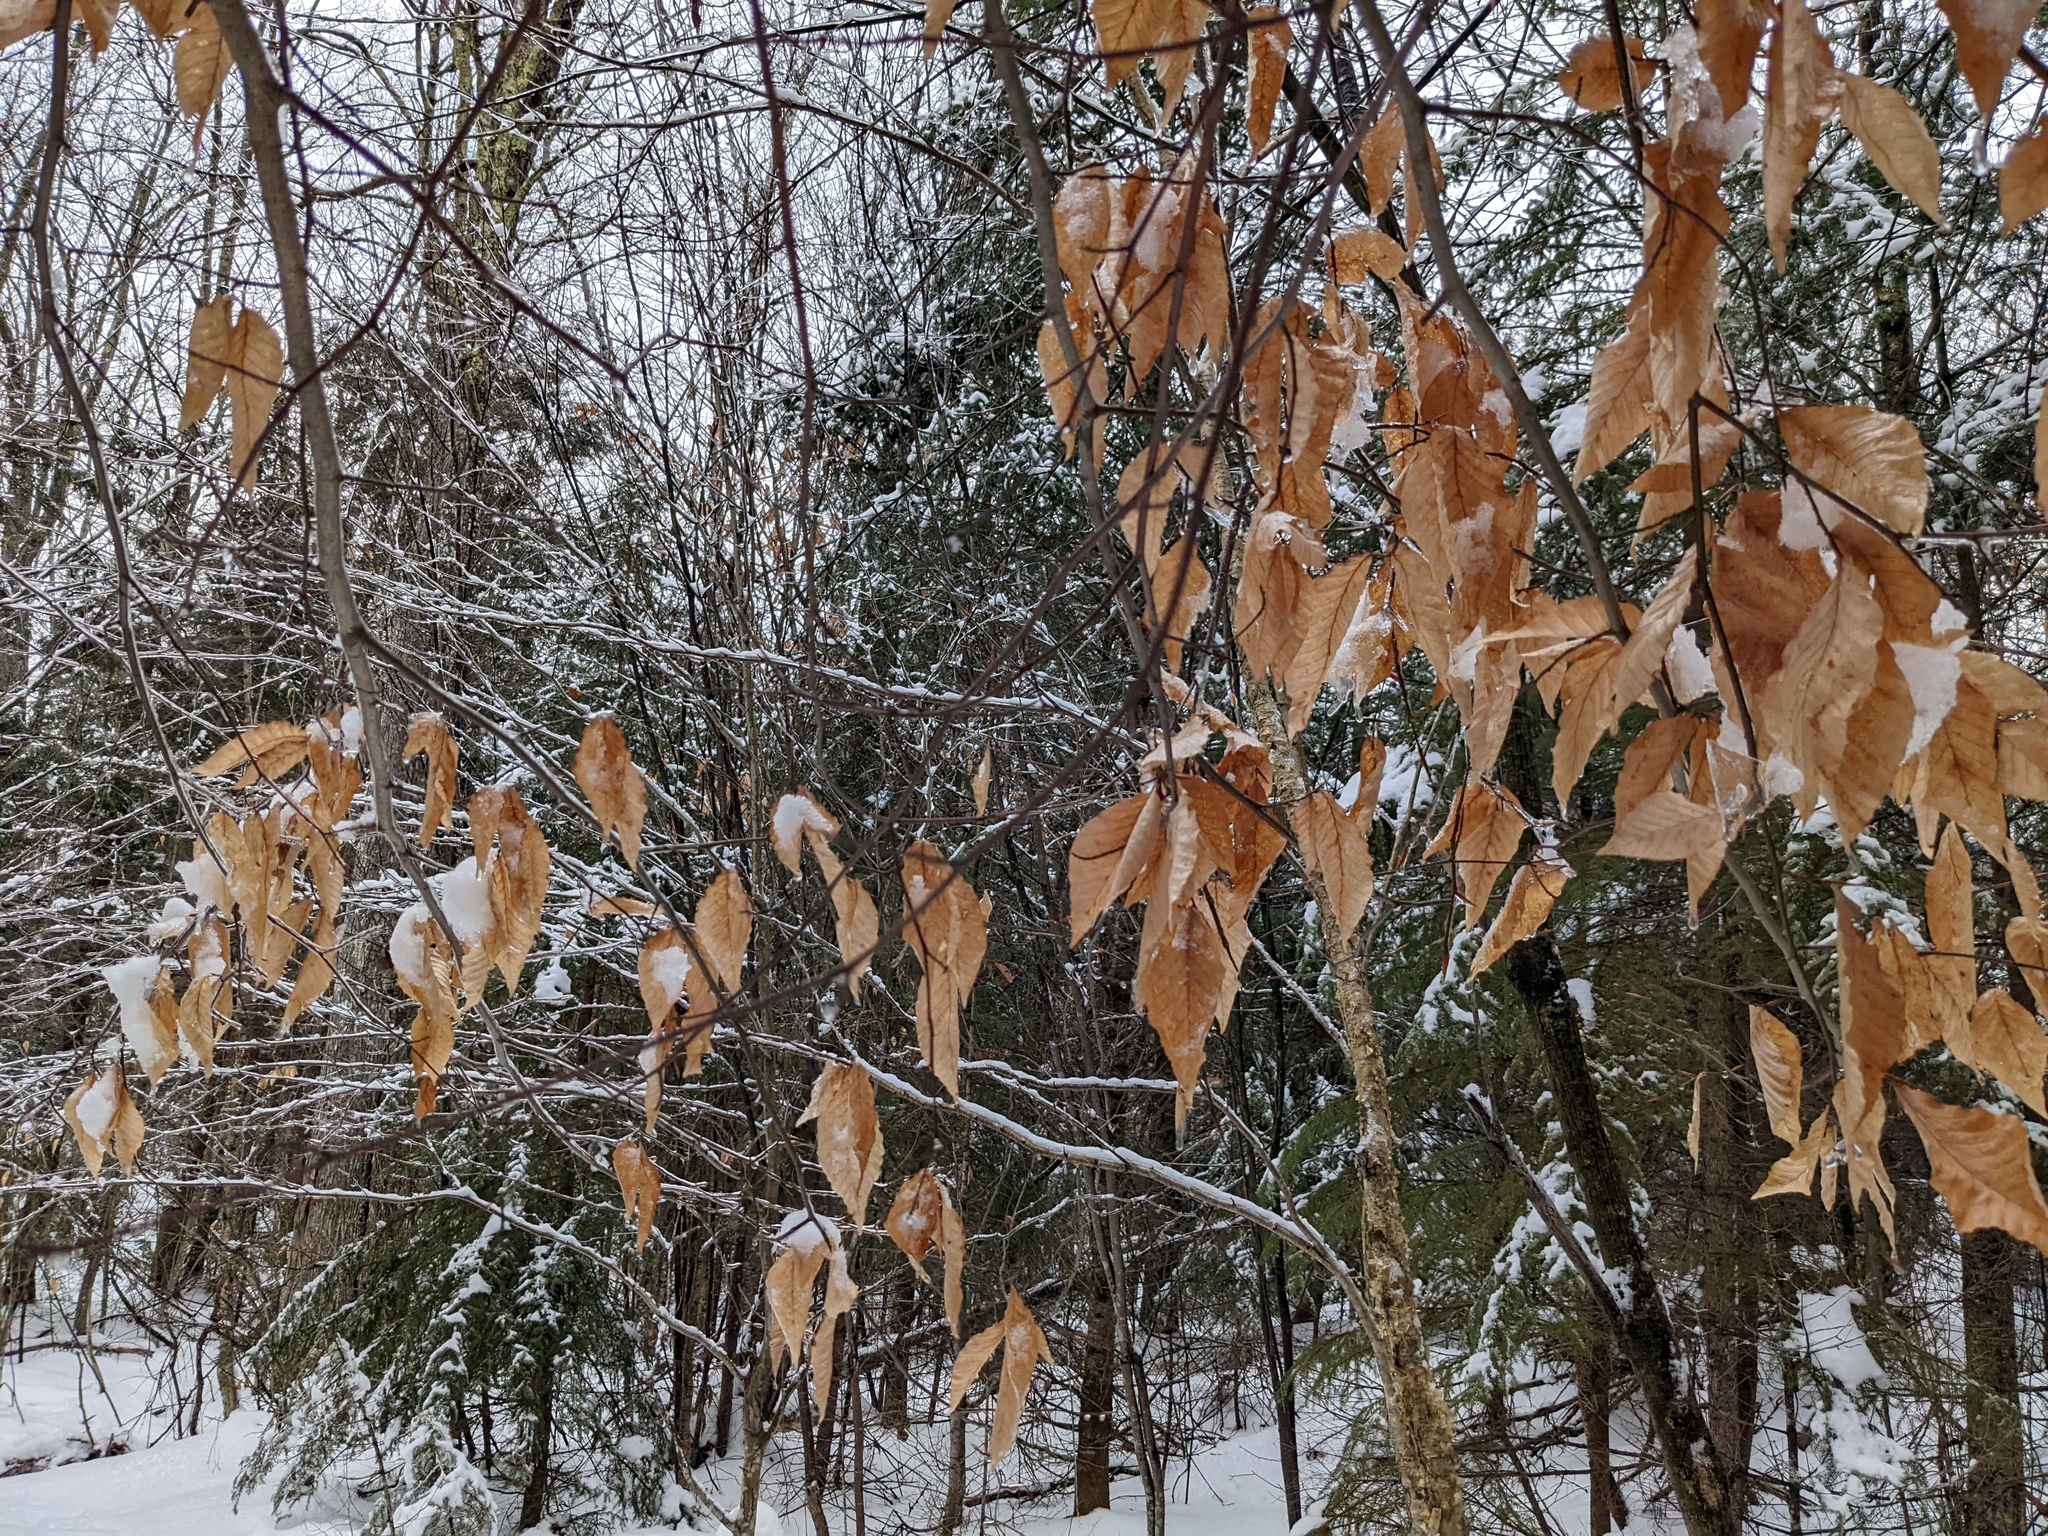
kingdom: Plantae
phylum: Tracheophyta
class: Magnoliopsida
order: Fagales
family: Fagaceae
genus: Fagus
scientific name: Fagus grandifolia
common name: American beech
